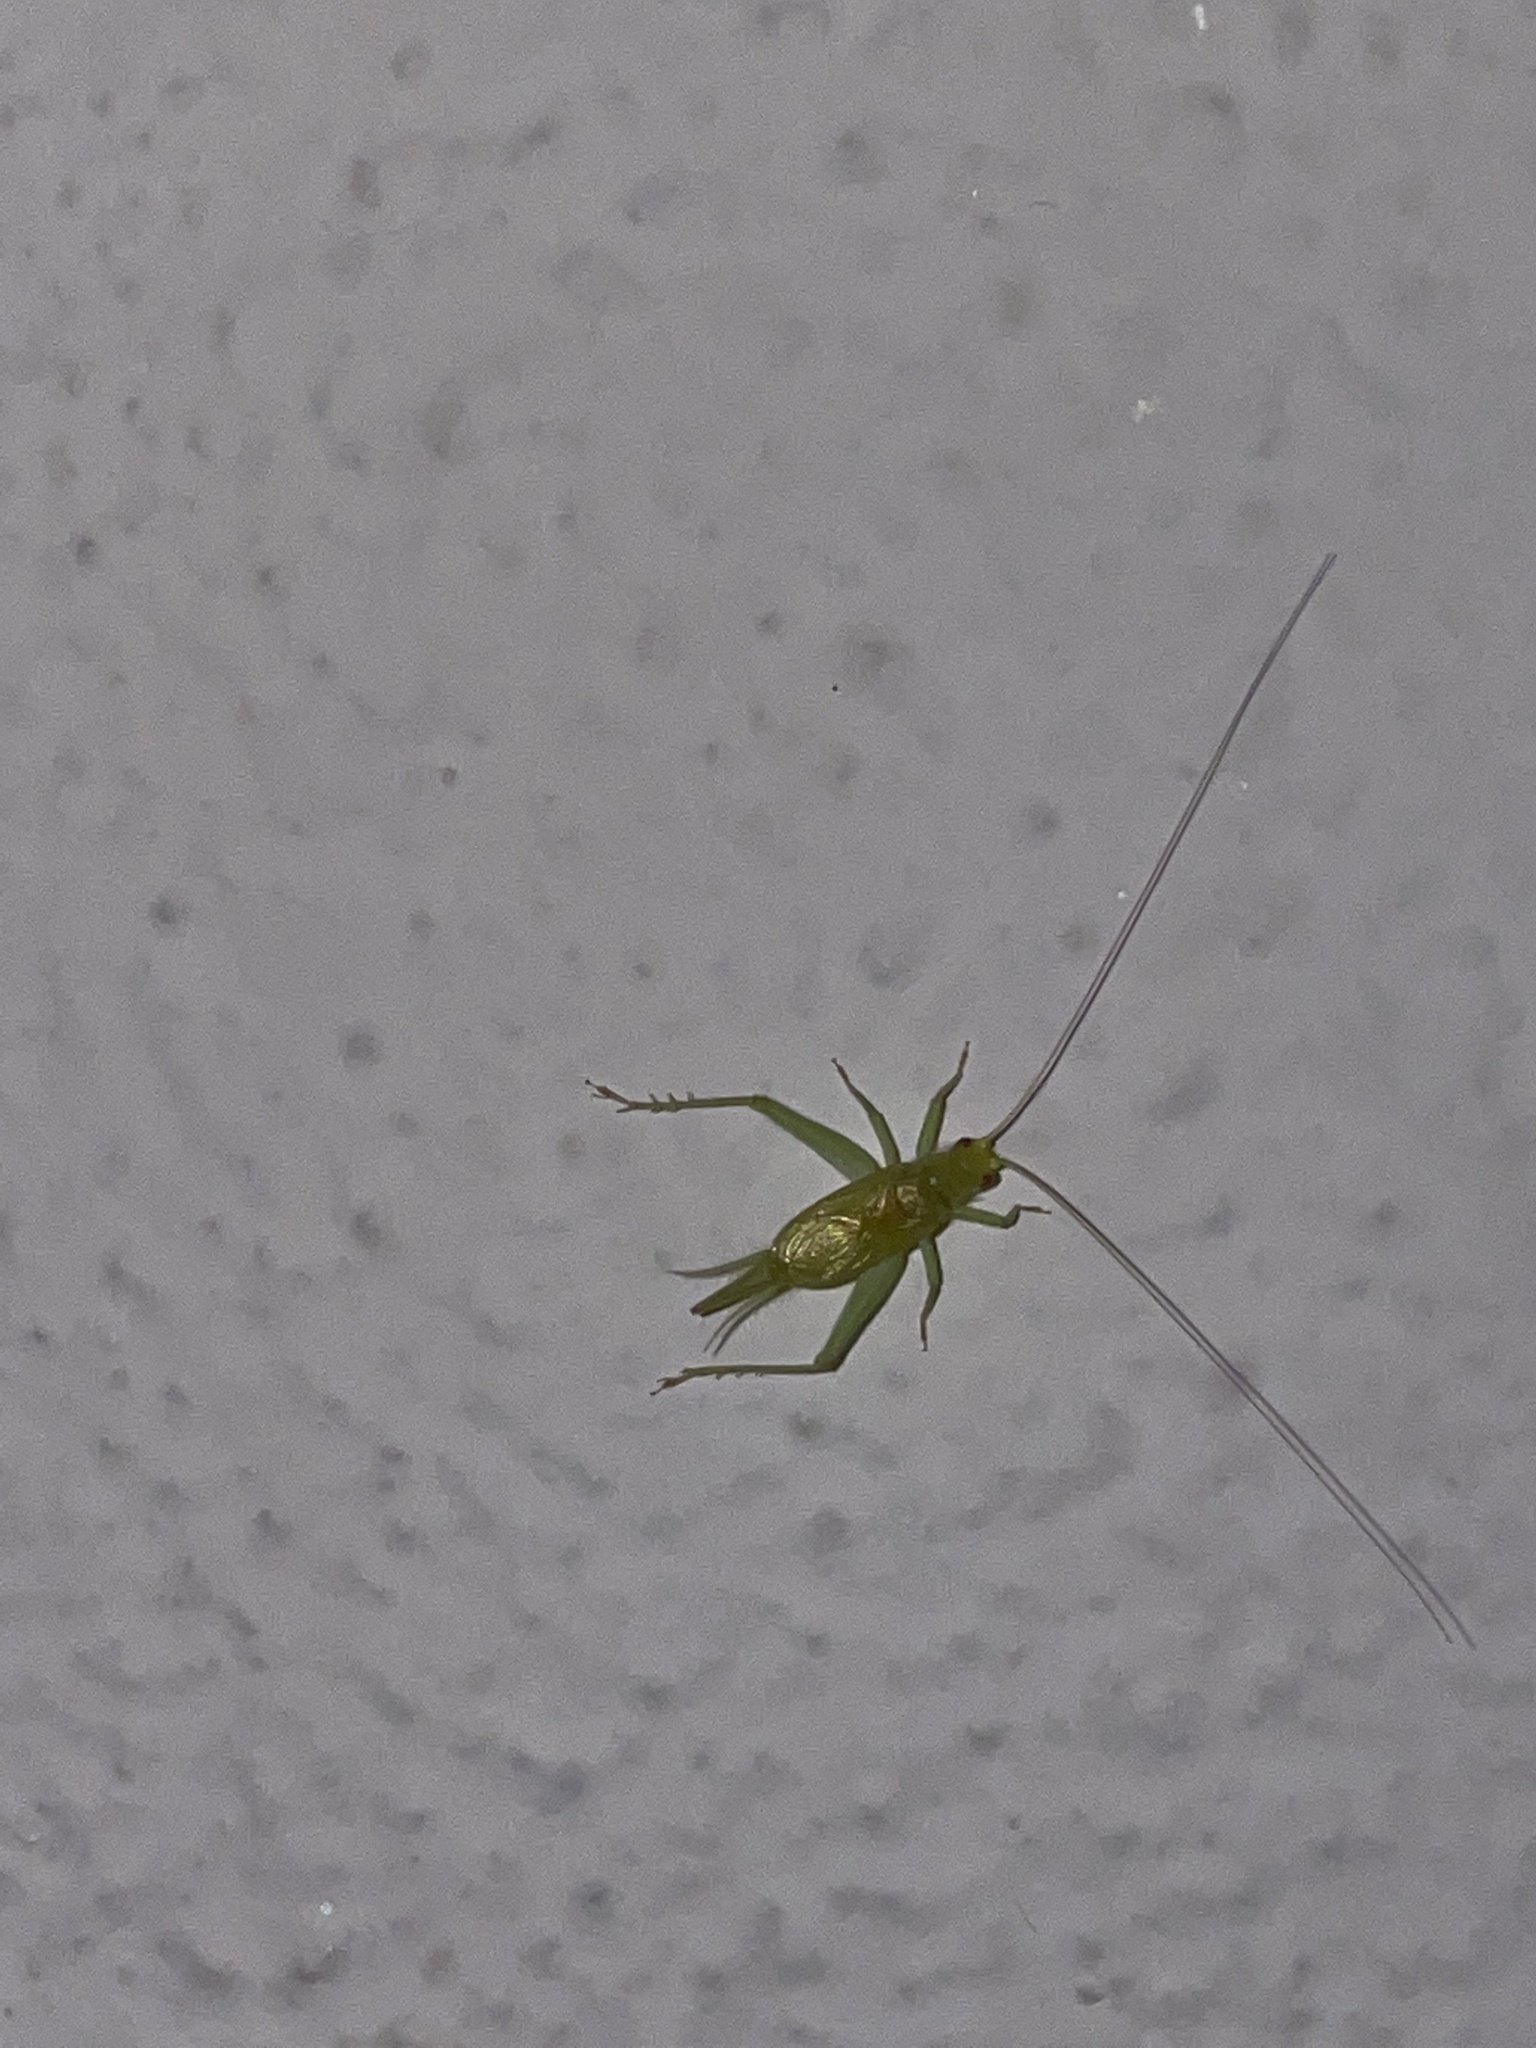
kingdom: Animalia
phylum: Arthropoda
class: Insecta
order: Orthoptera
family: Trigonidiidae
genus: Cyrtoxipha
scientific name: Cyrtoxipha columbiana
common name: Columbian trig
